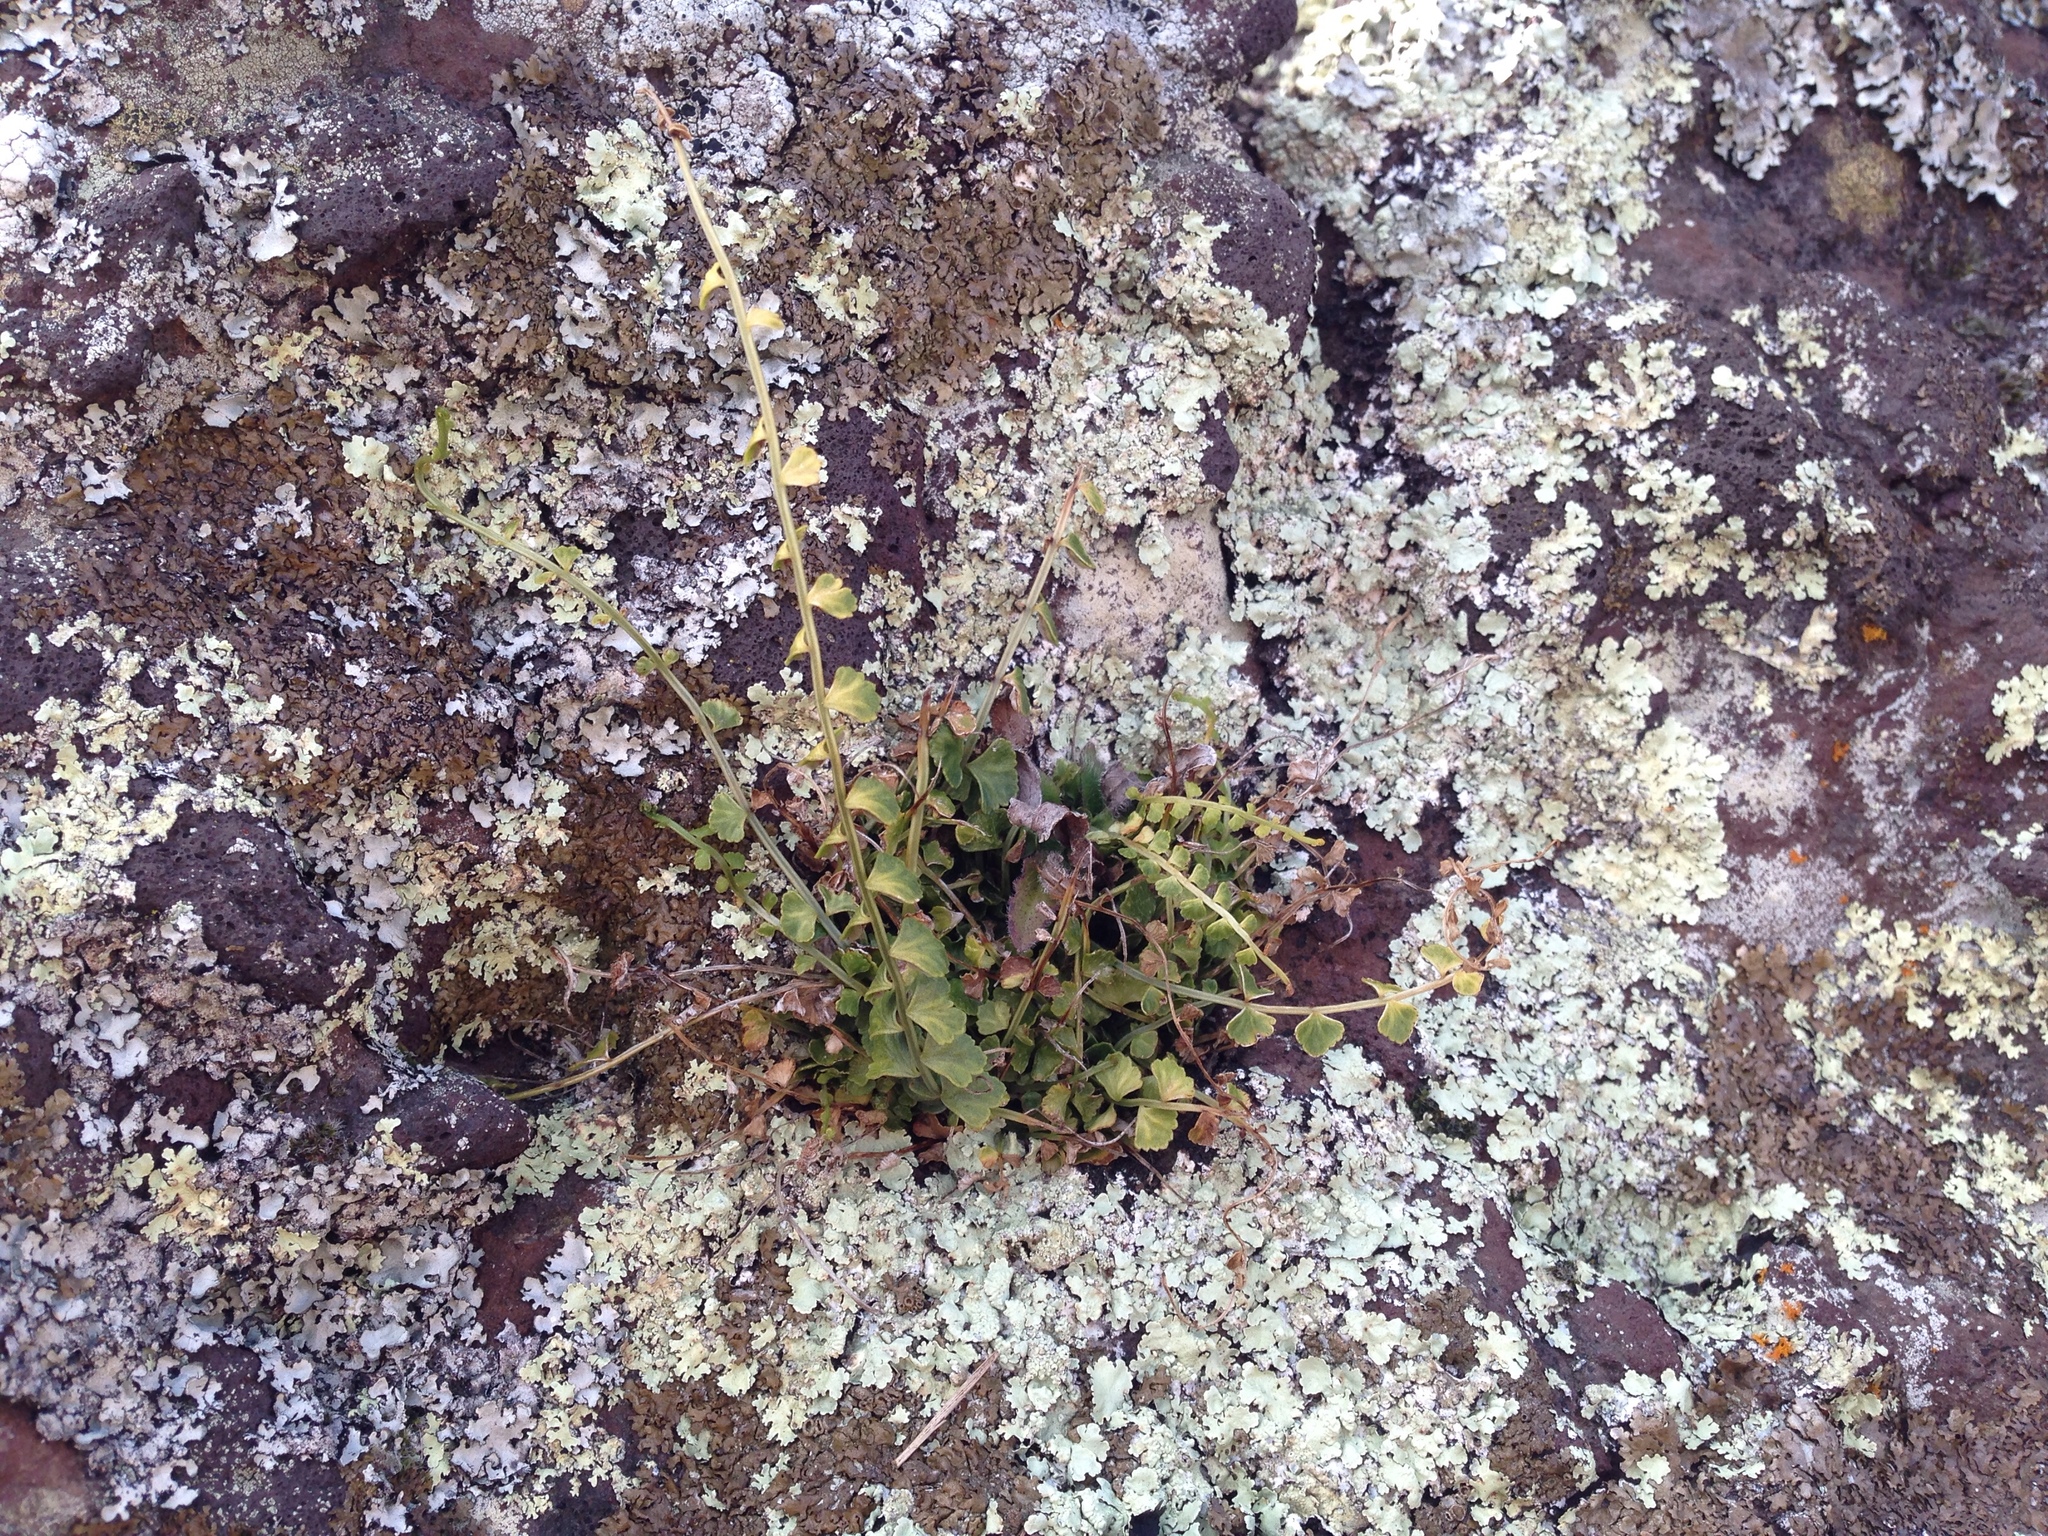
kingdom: Plantae
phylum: Tracheophyta
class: Polypodiopsida
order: Polypodiales
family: Aspleniaceae
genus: Asplenium
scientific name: Asplenium flabellifolium
